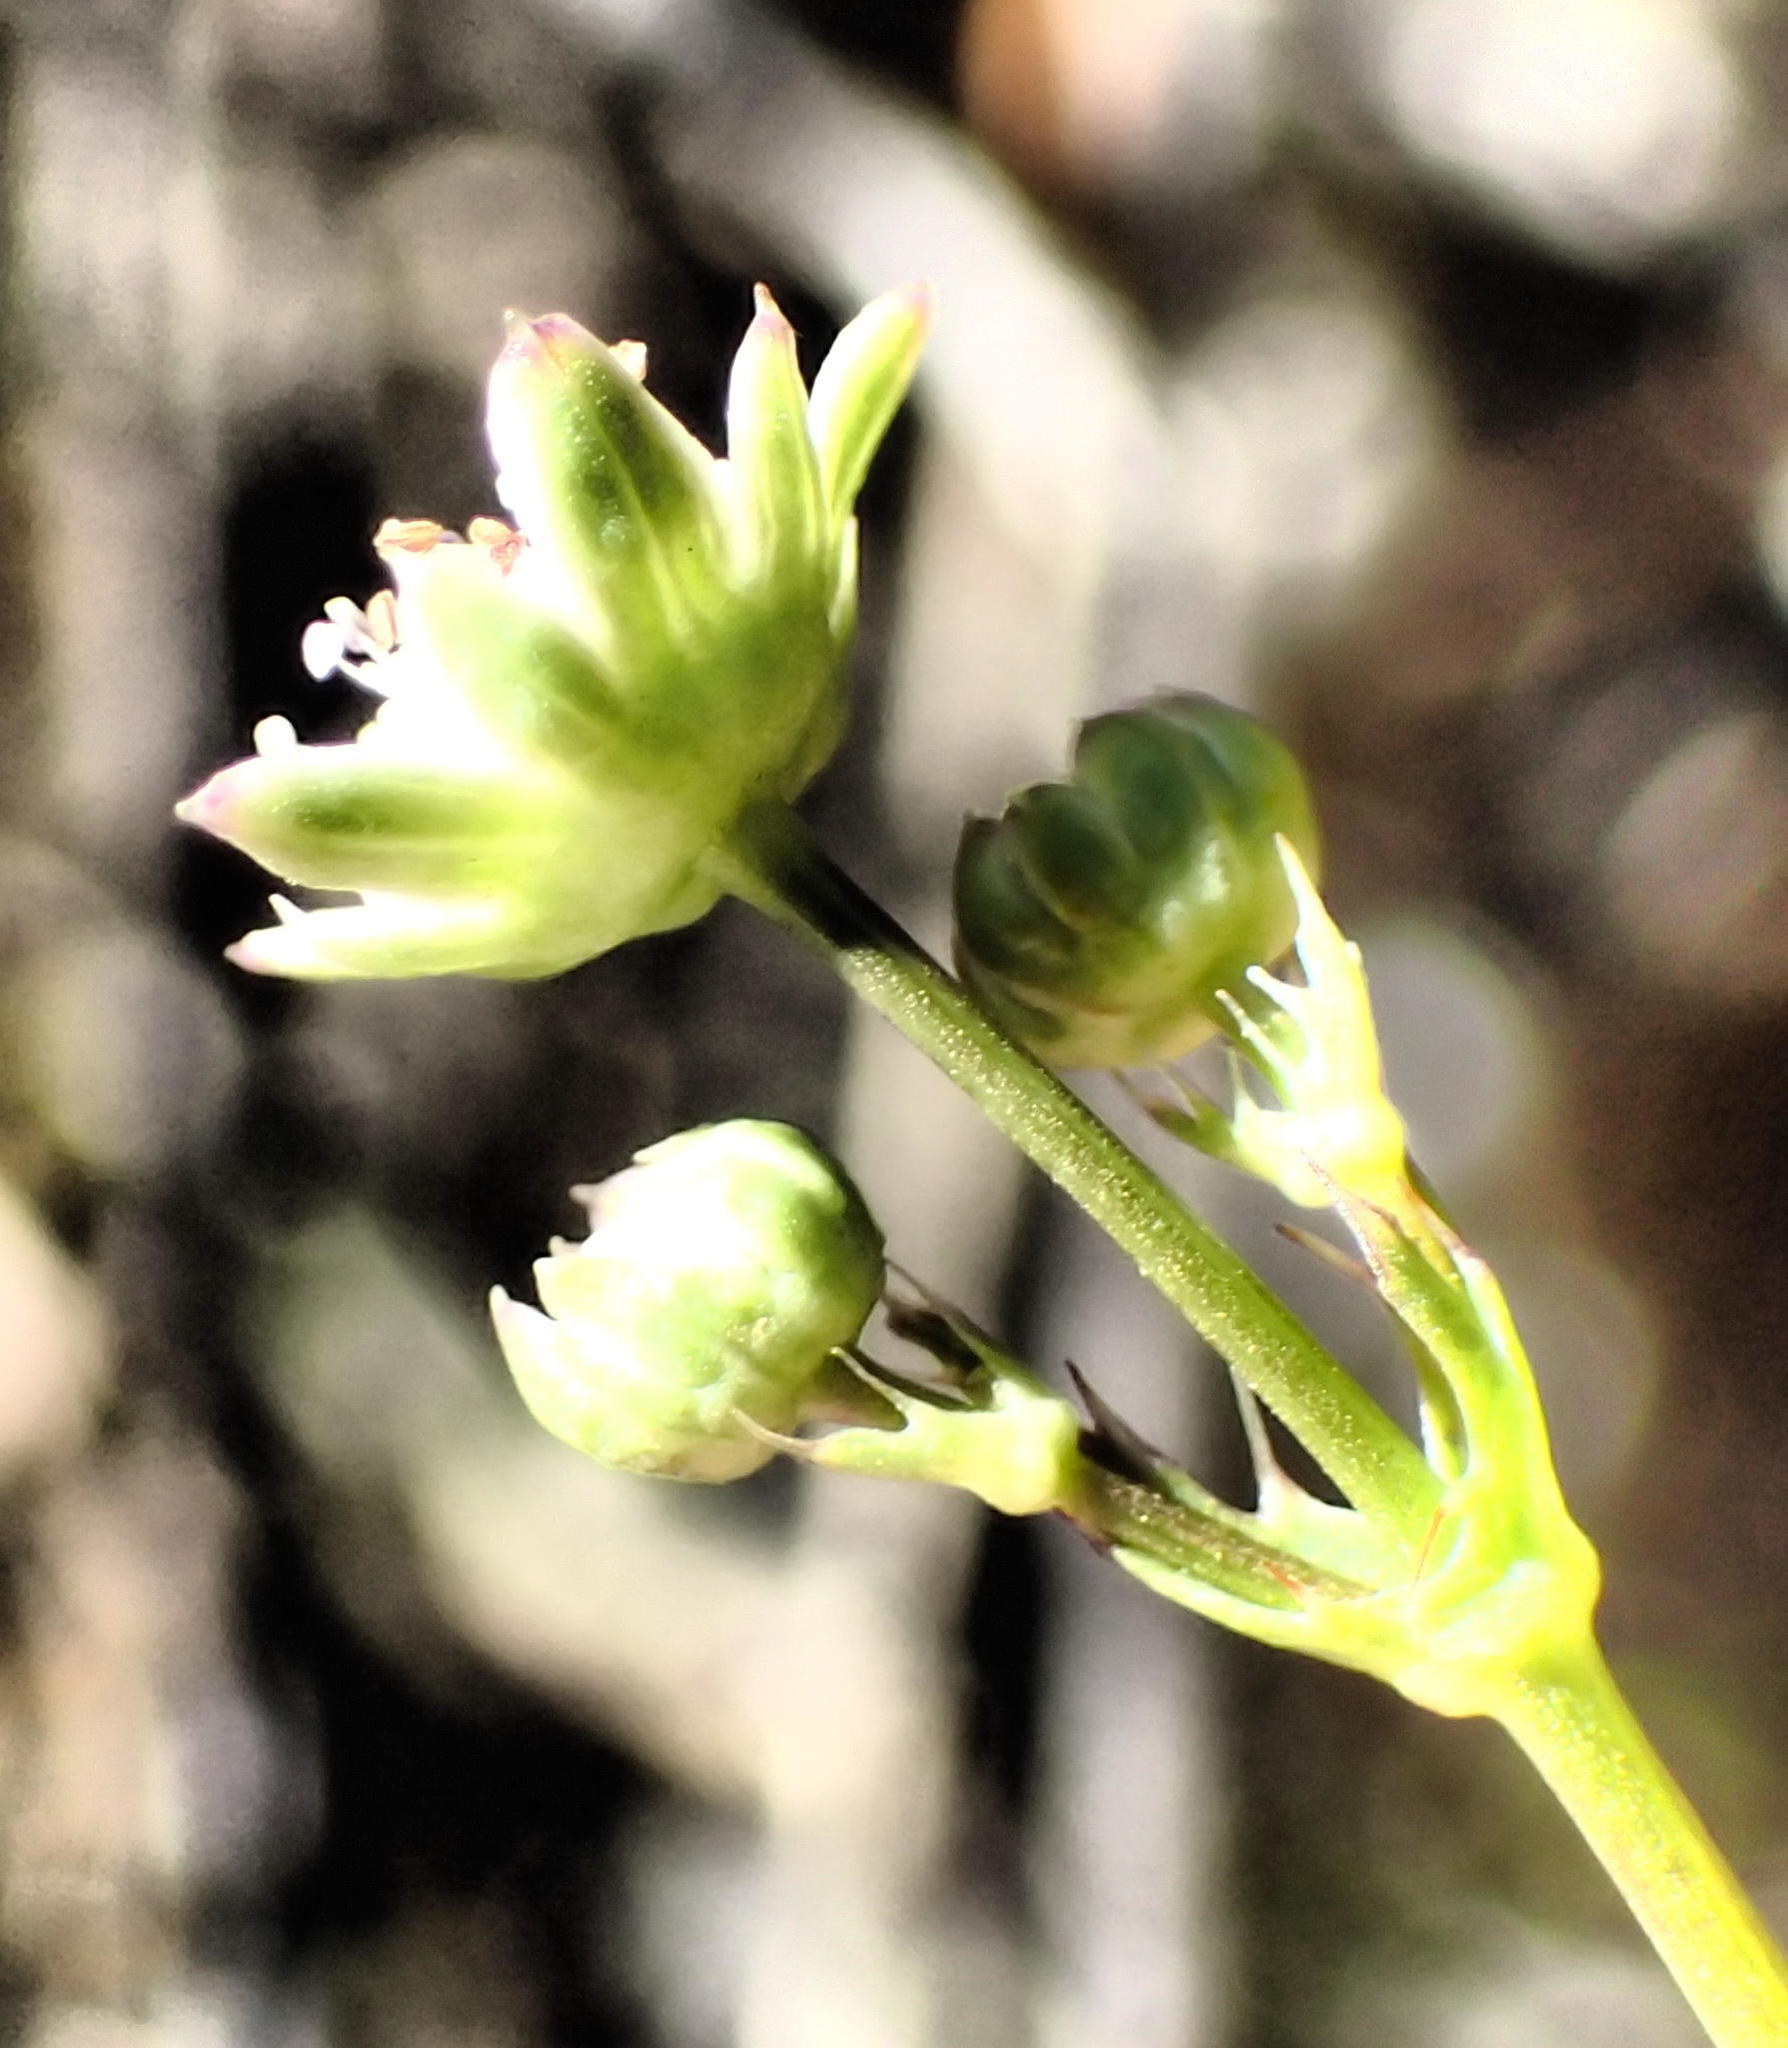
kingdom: Plantae
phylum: Tracheophyta
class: Magnoliopsida
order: Apiales
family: Apiaceae
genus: Alepidea
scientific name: Alepidea capensis
